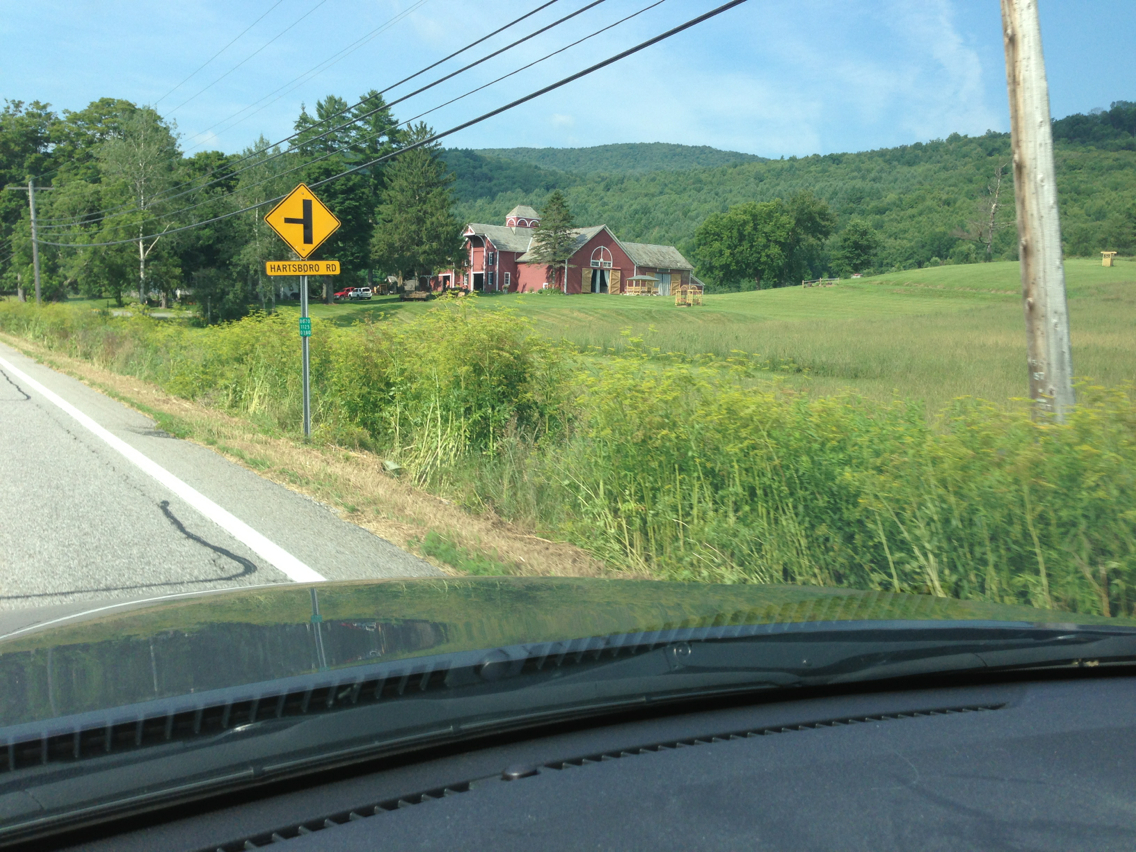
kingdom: Plantae
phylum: Tracheophyta
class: Magnoliopsida
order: Apiales
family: Apiaceae
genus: Pastinaca
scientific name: Pastinaca sativa
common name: Wild parsnip
